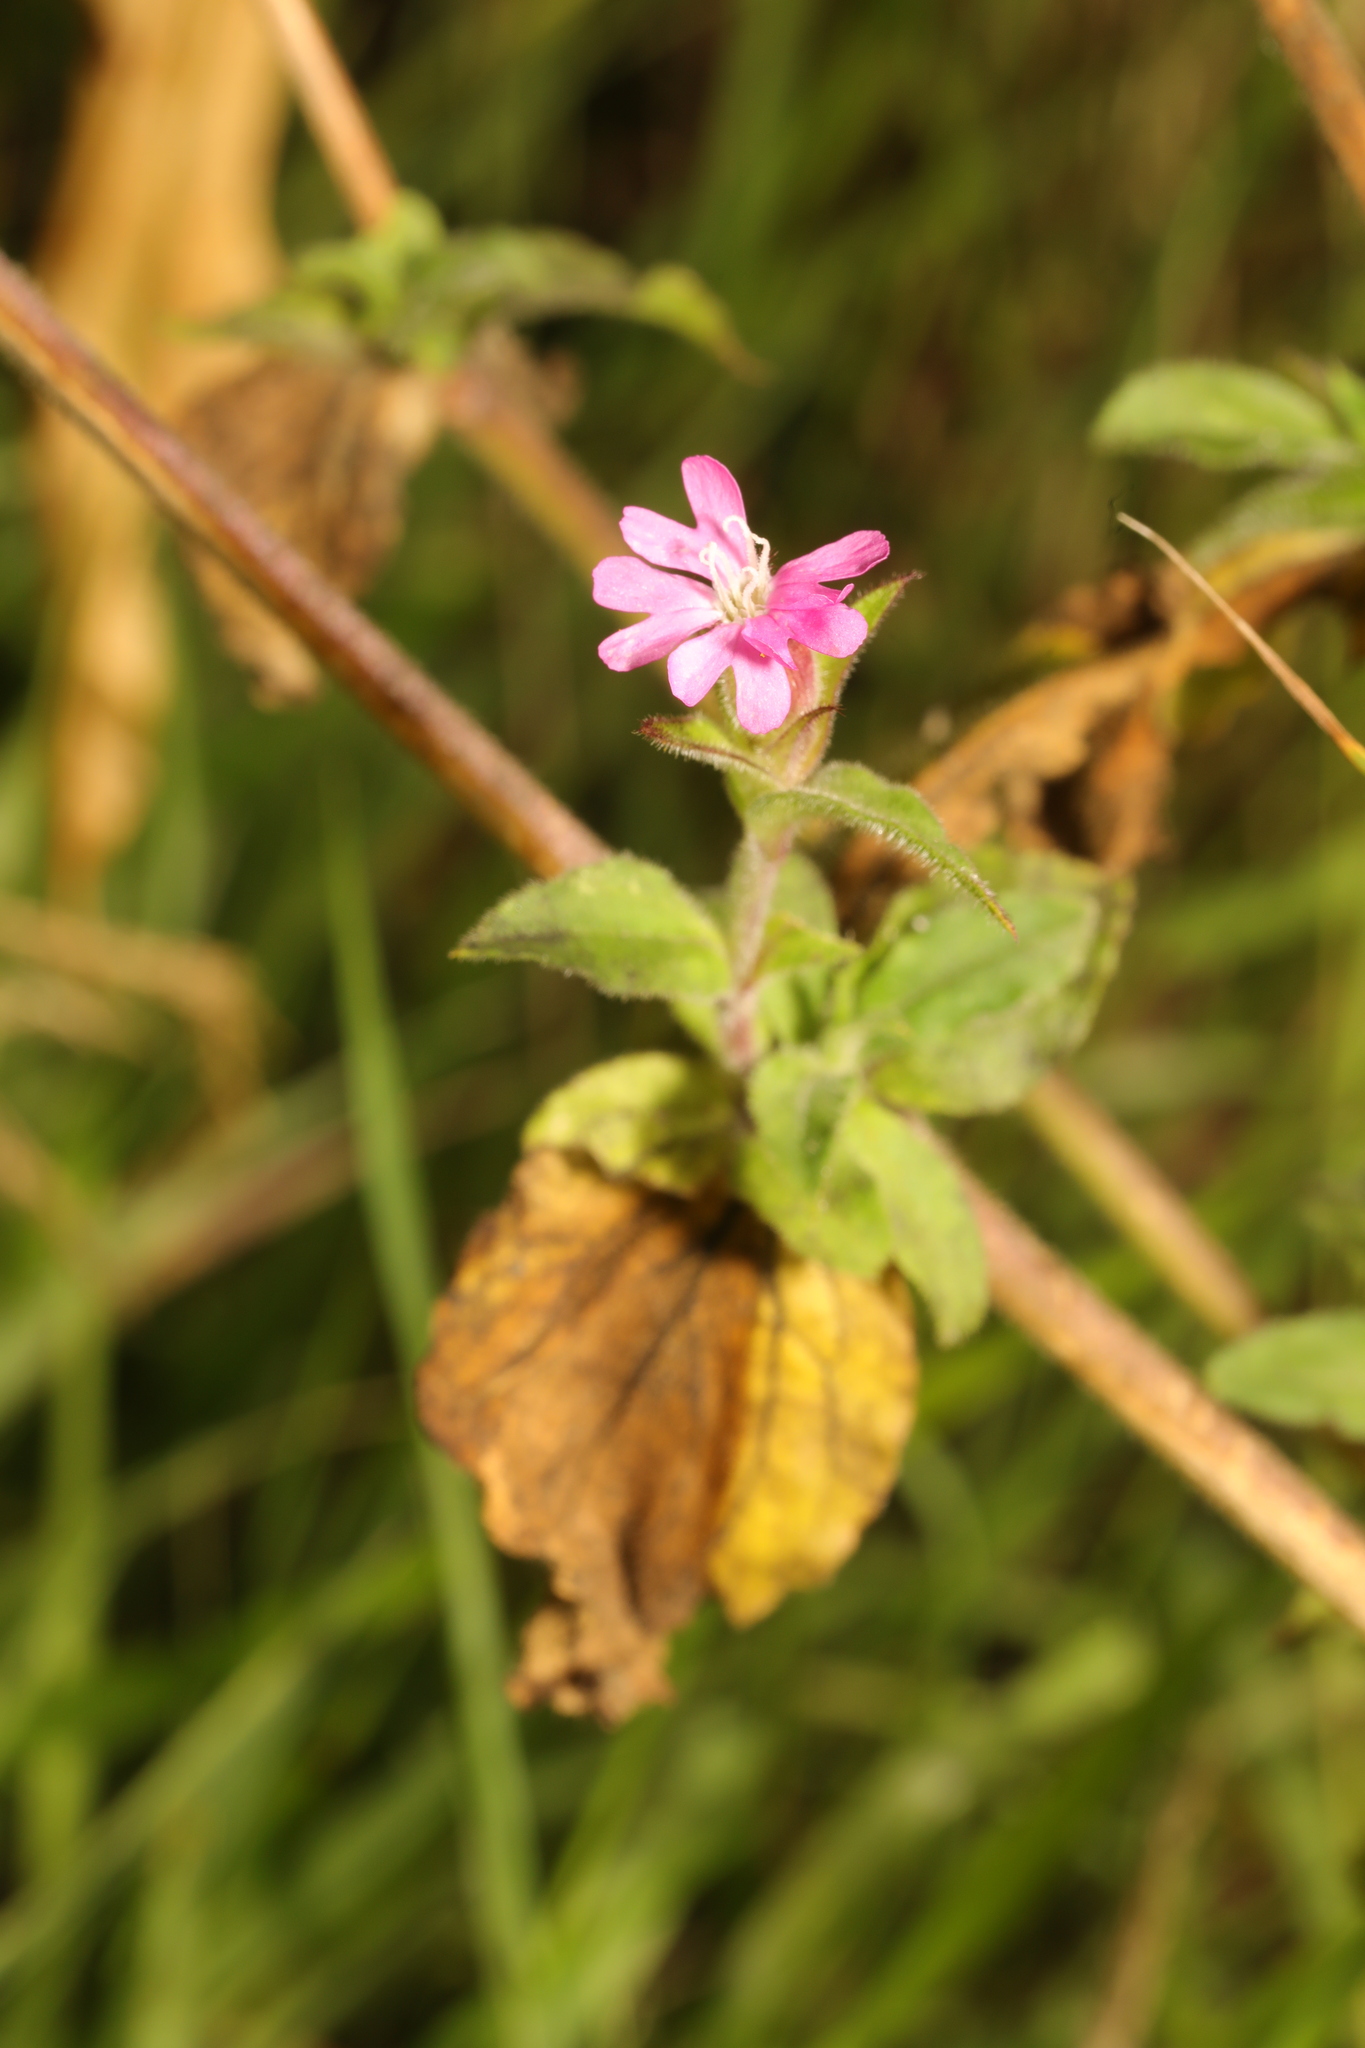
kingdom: Plantae
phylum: Tracheophyta
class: Magnoliopsida
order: Caryophyllales
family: Caryophyllaceae
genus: Silene
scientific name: Silene dioica
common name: Red campion
